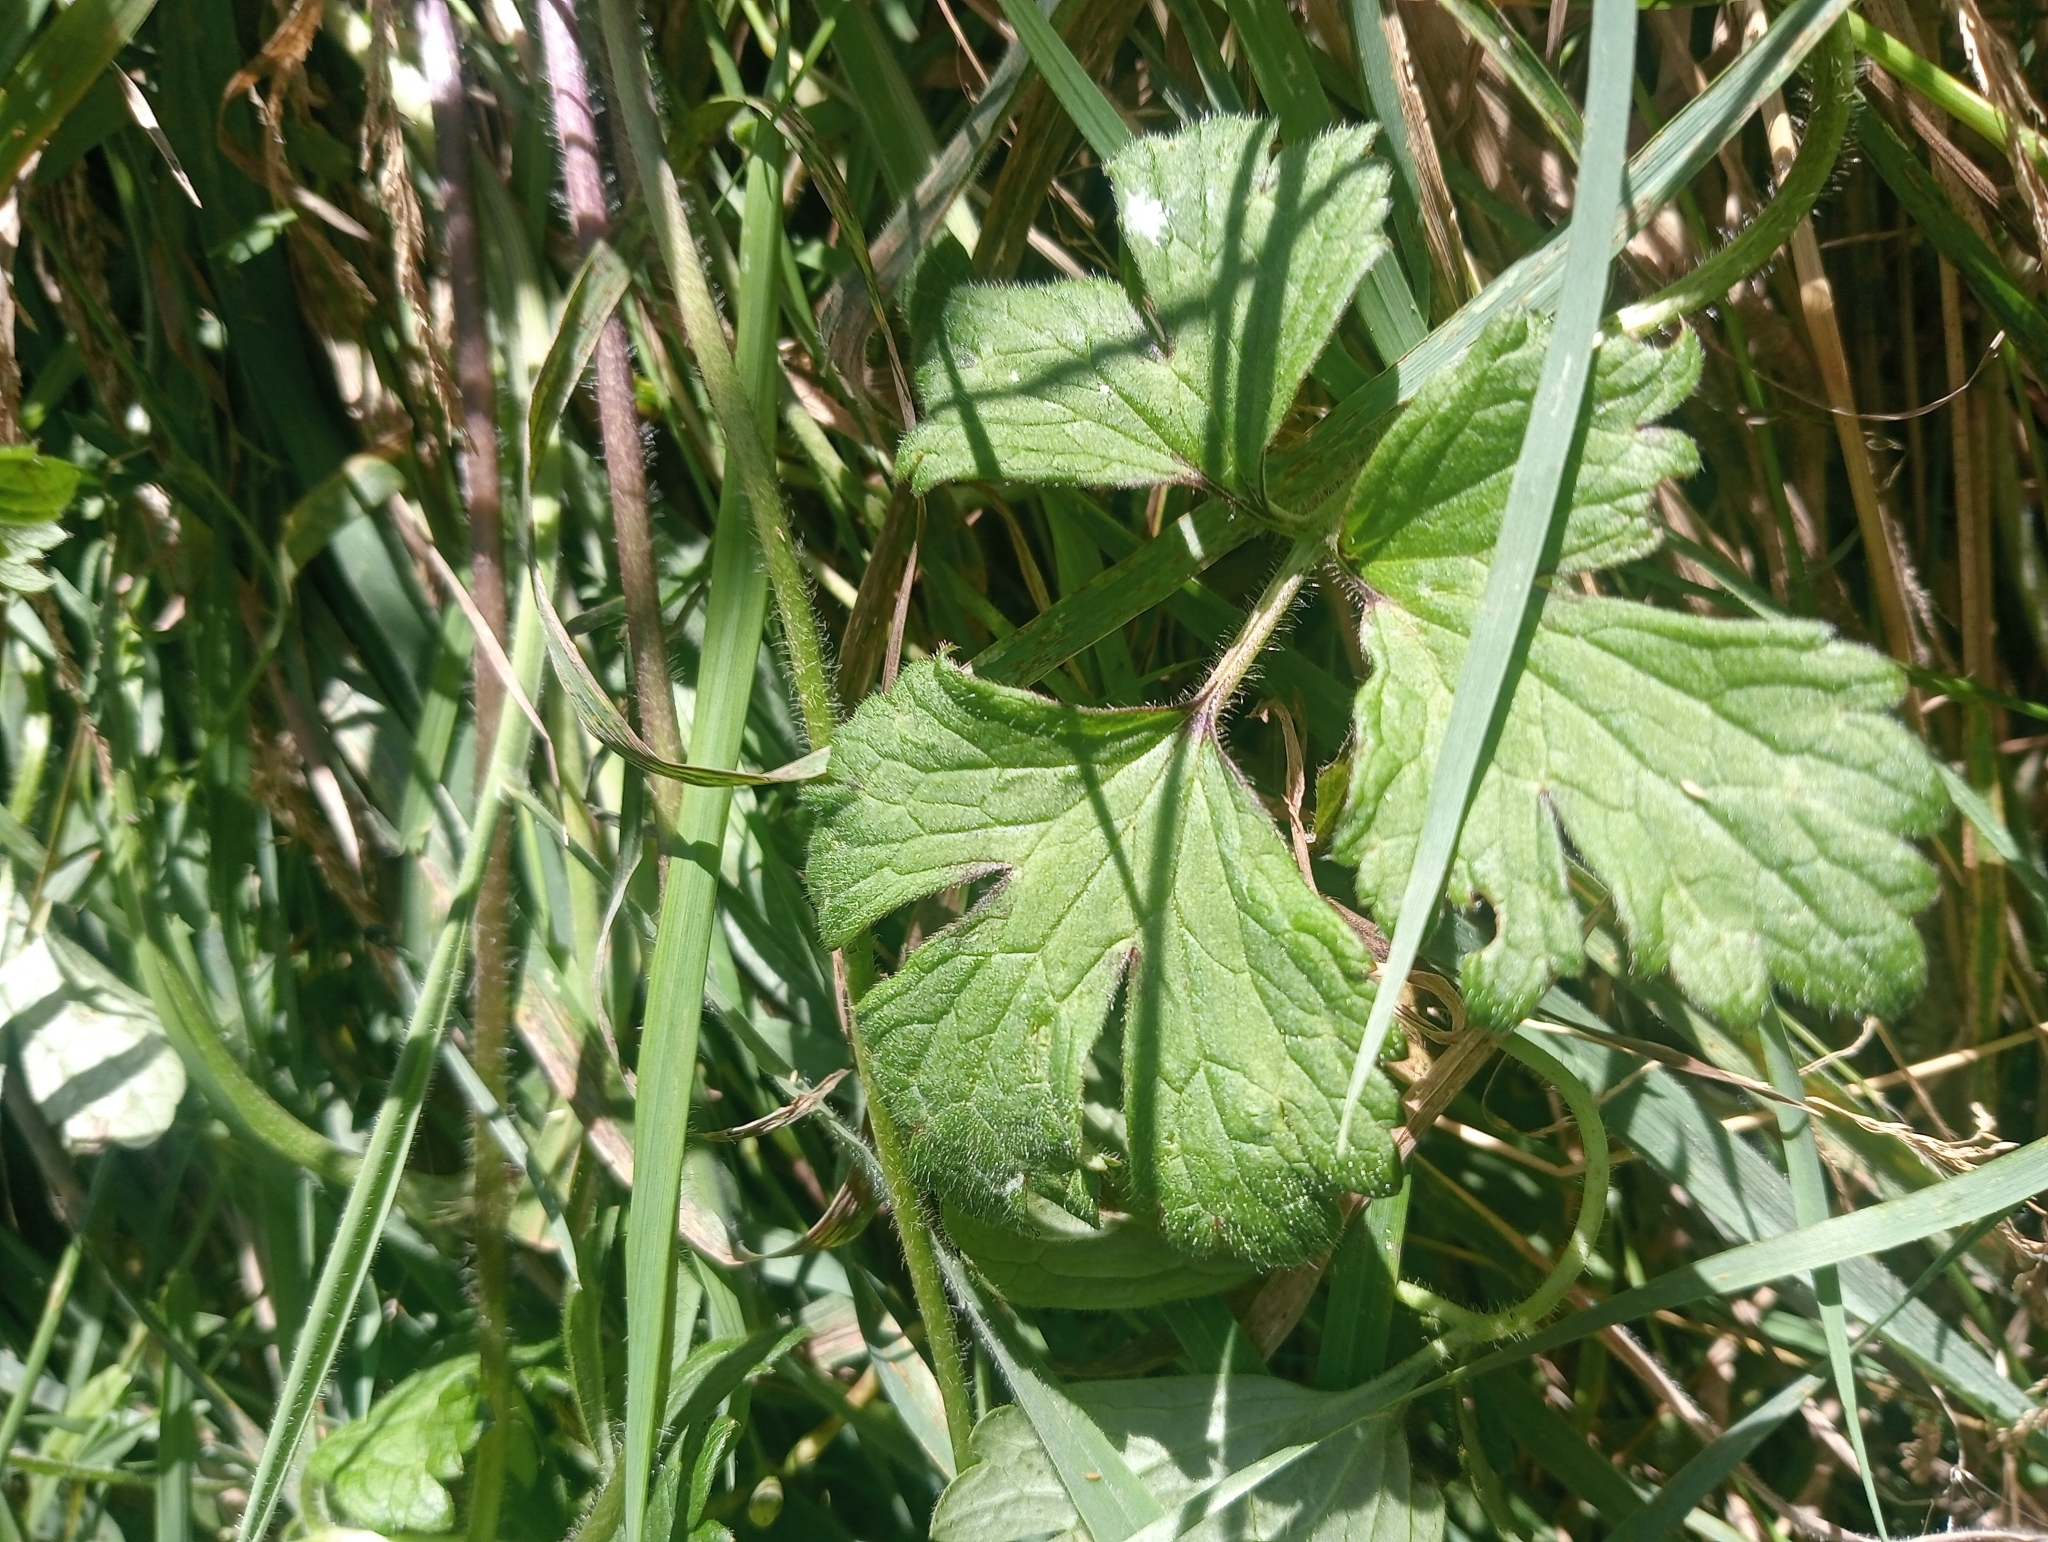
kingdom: Plantae
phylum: Tracheophyta
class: Magnoliopsida
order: Ranunculales
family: Ranunculaceae
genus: Ranunculus
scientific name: Ranunculus repens
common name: Creeping buttercup
